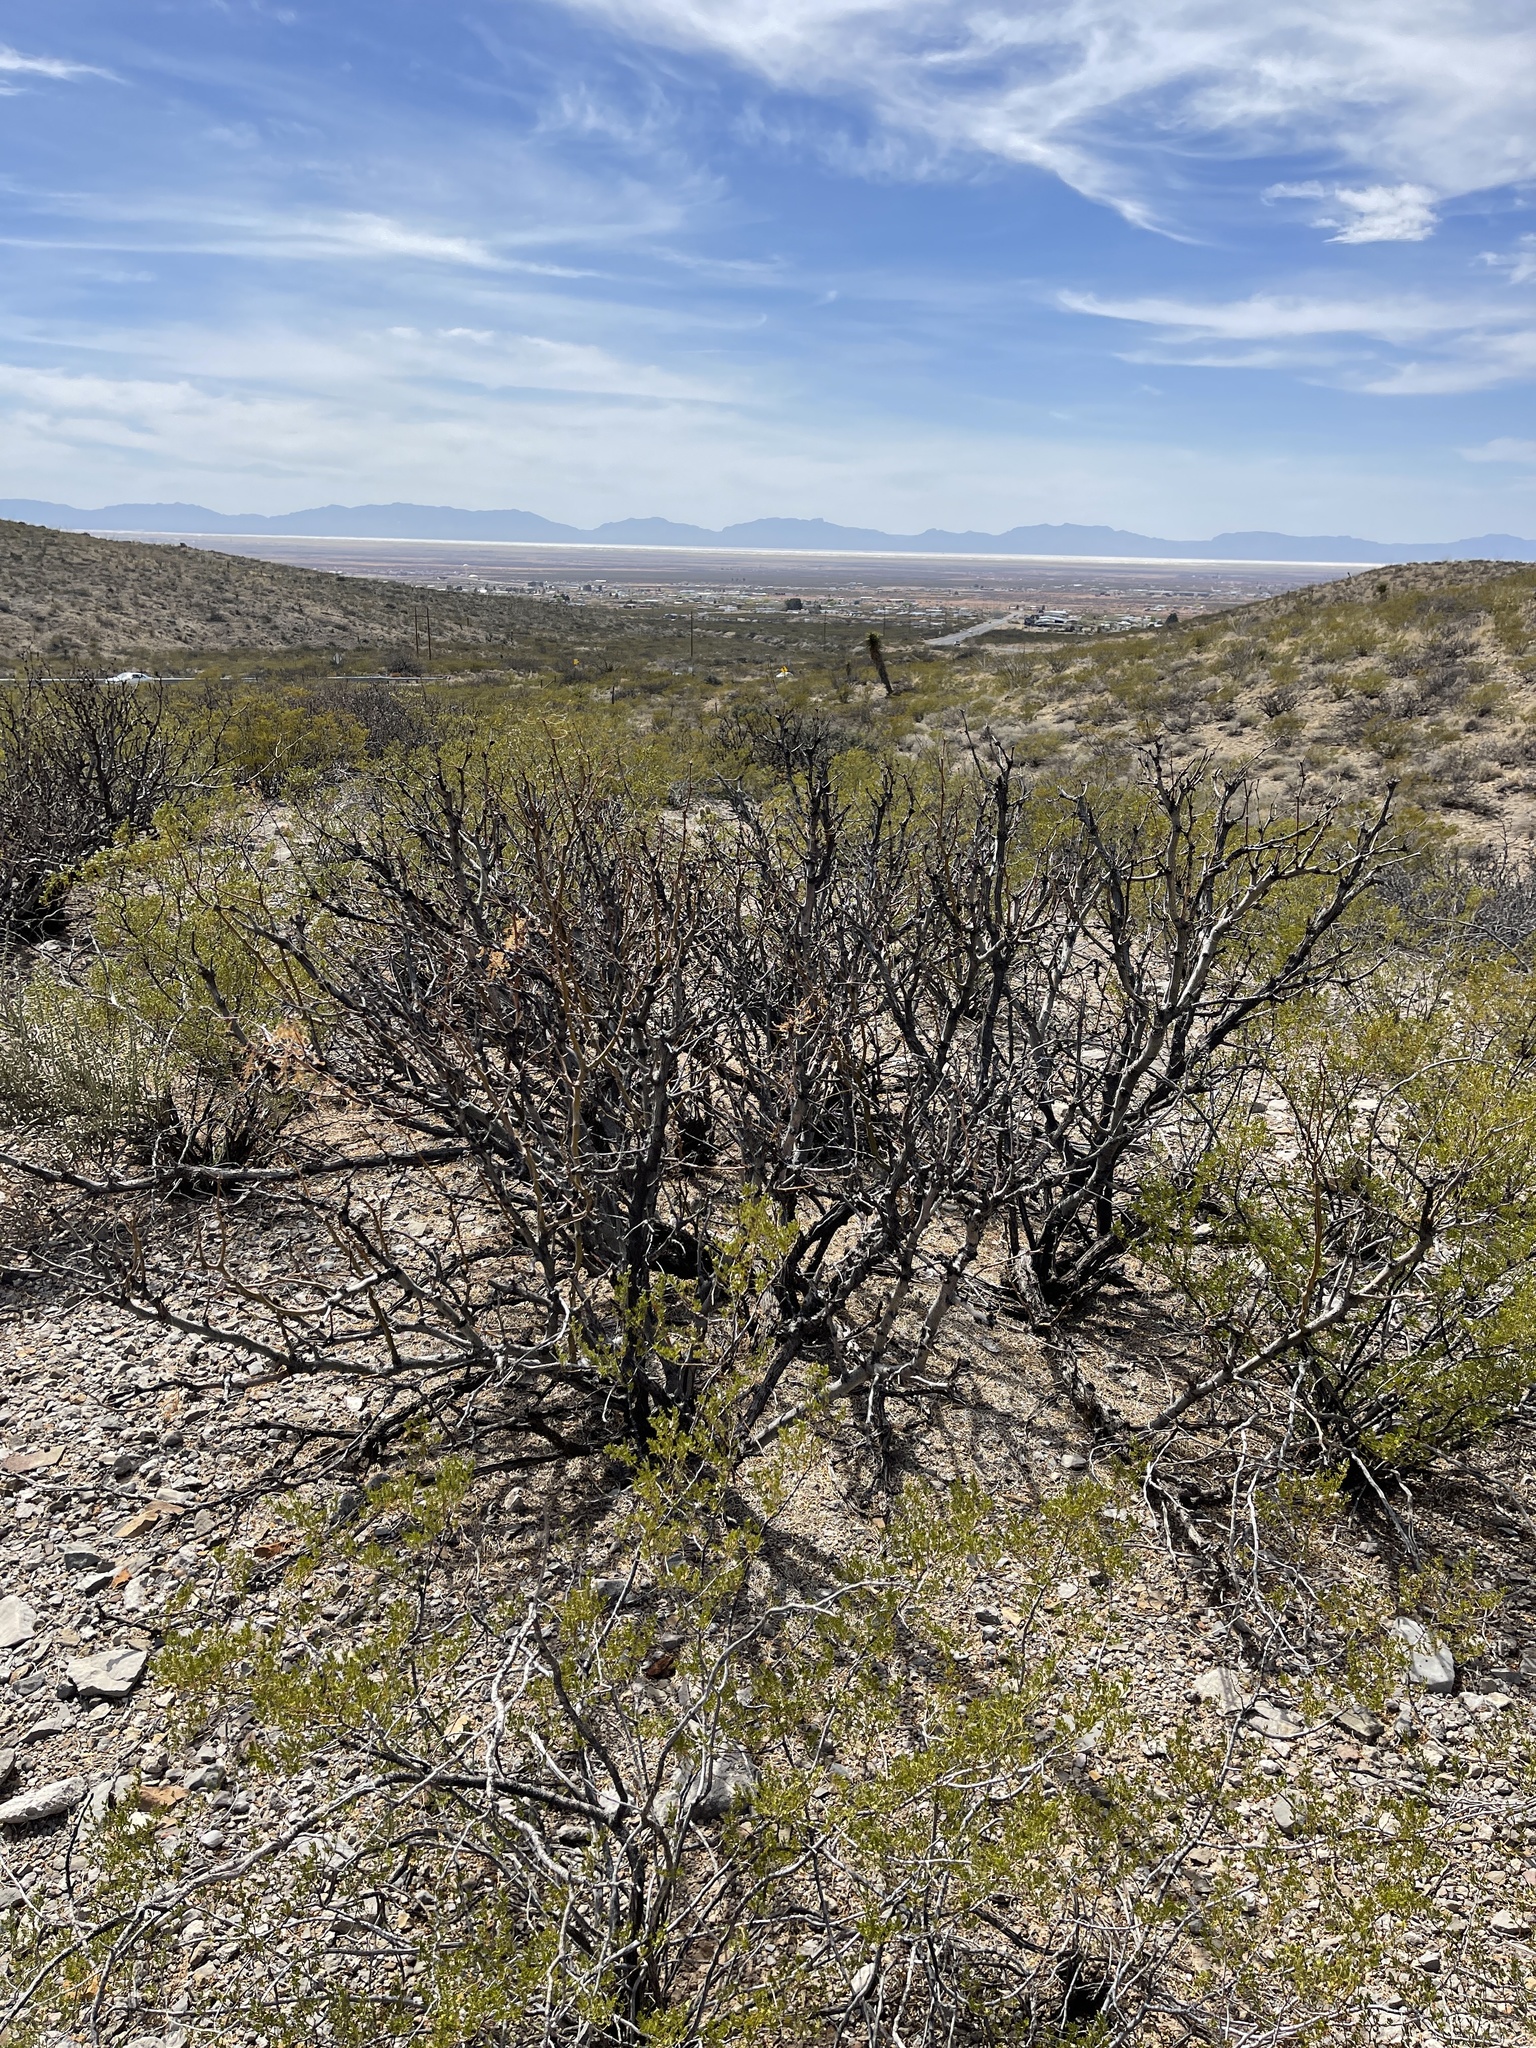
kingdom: Plantae
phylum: Tracheophyta
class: Magnoliopsida
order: Fabales
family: Fabaceae
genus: Prosopis
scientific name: Prosopis glandulosa
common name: Honey mesquite
